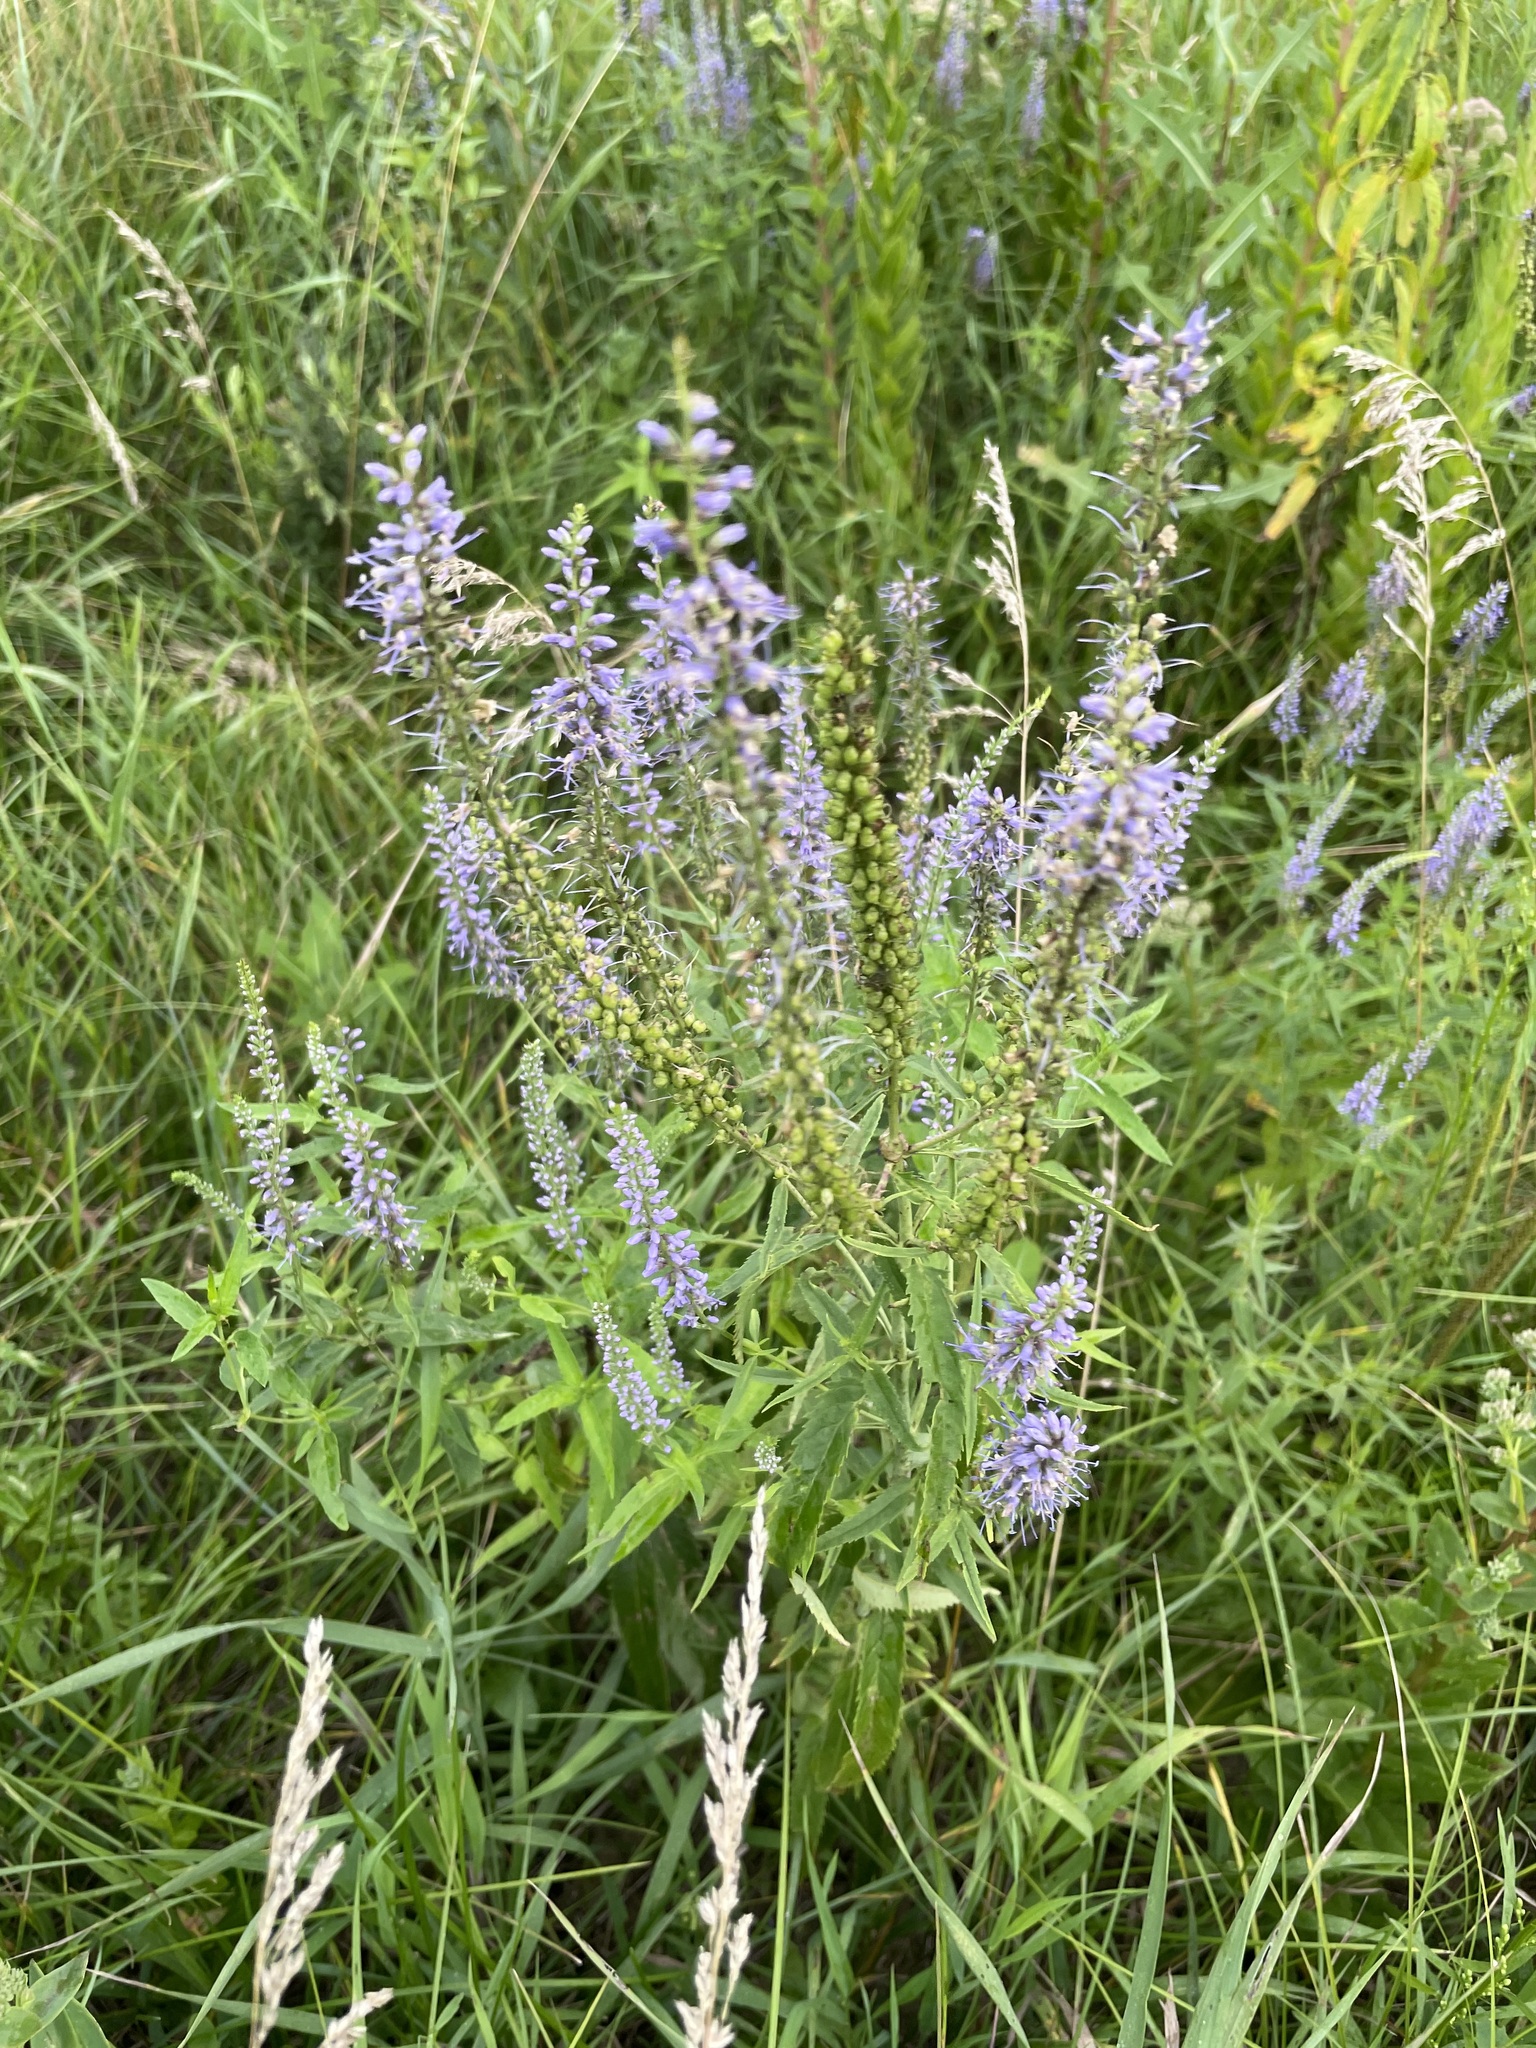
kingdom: Plantae
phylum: Tracheophyta
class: Magnoliopsida
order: Lamiales
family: Plantaginaceae
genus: Veronica
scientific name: Veronica longifolia
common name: Garden speedwell
